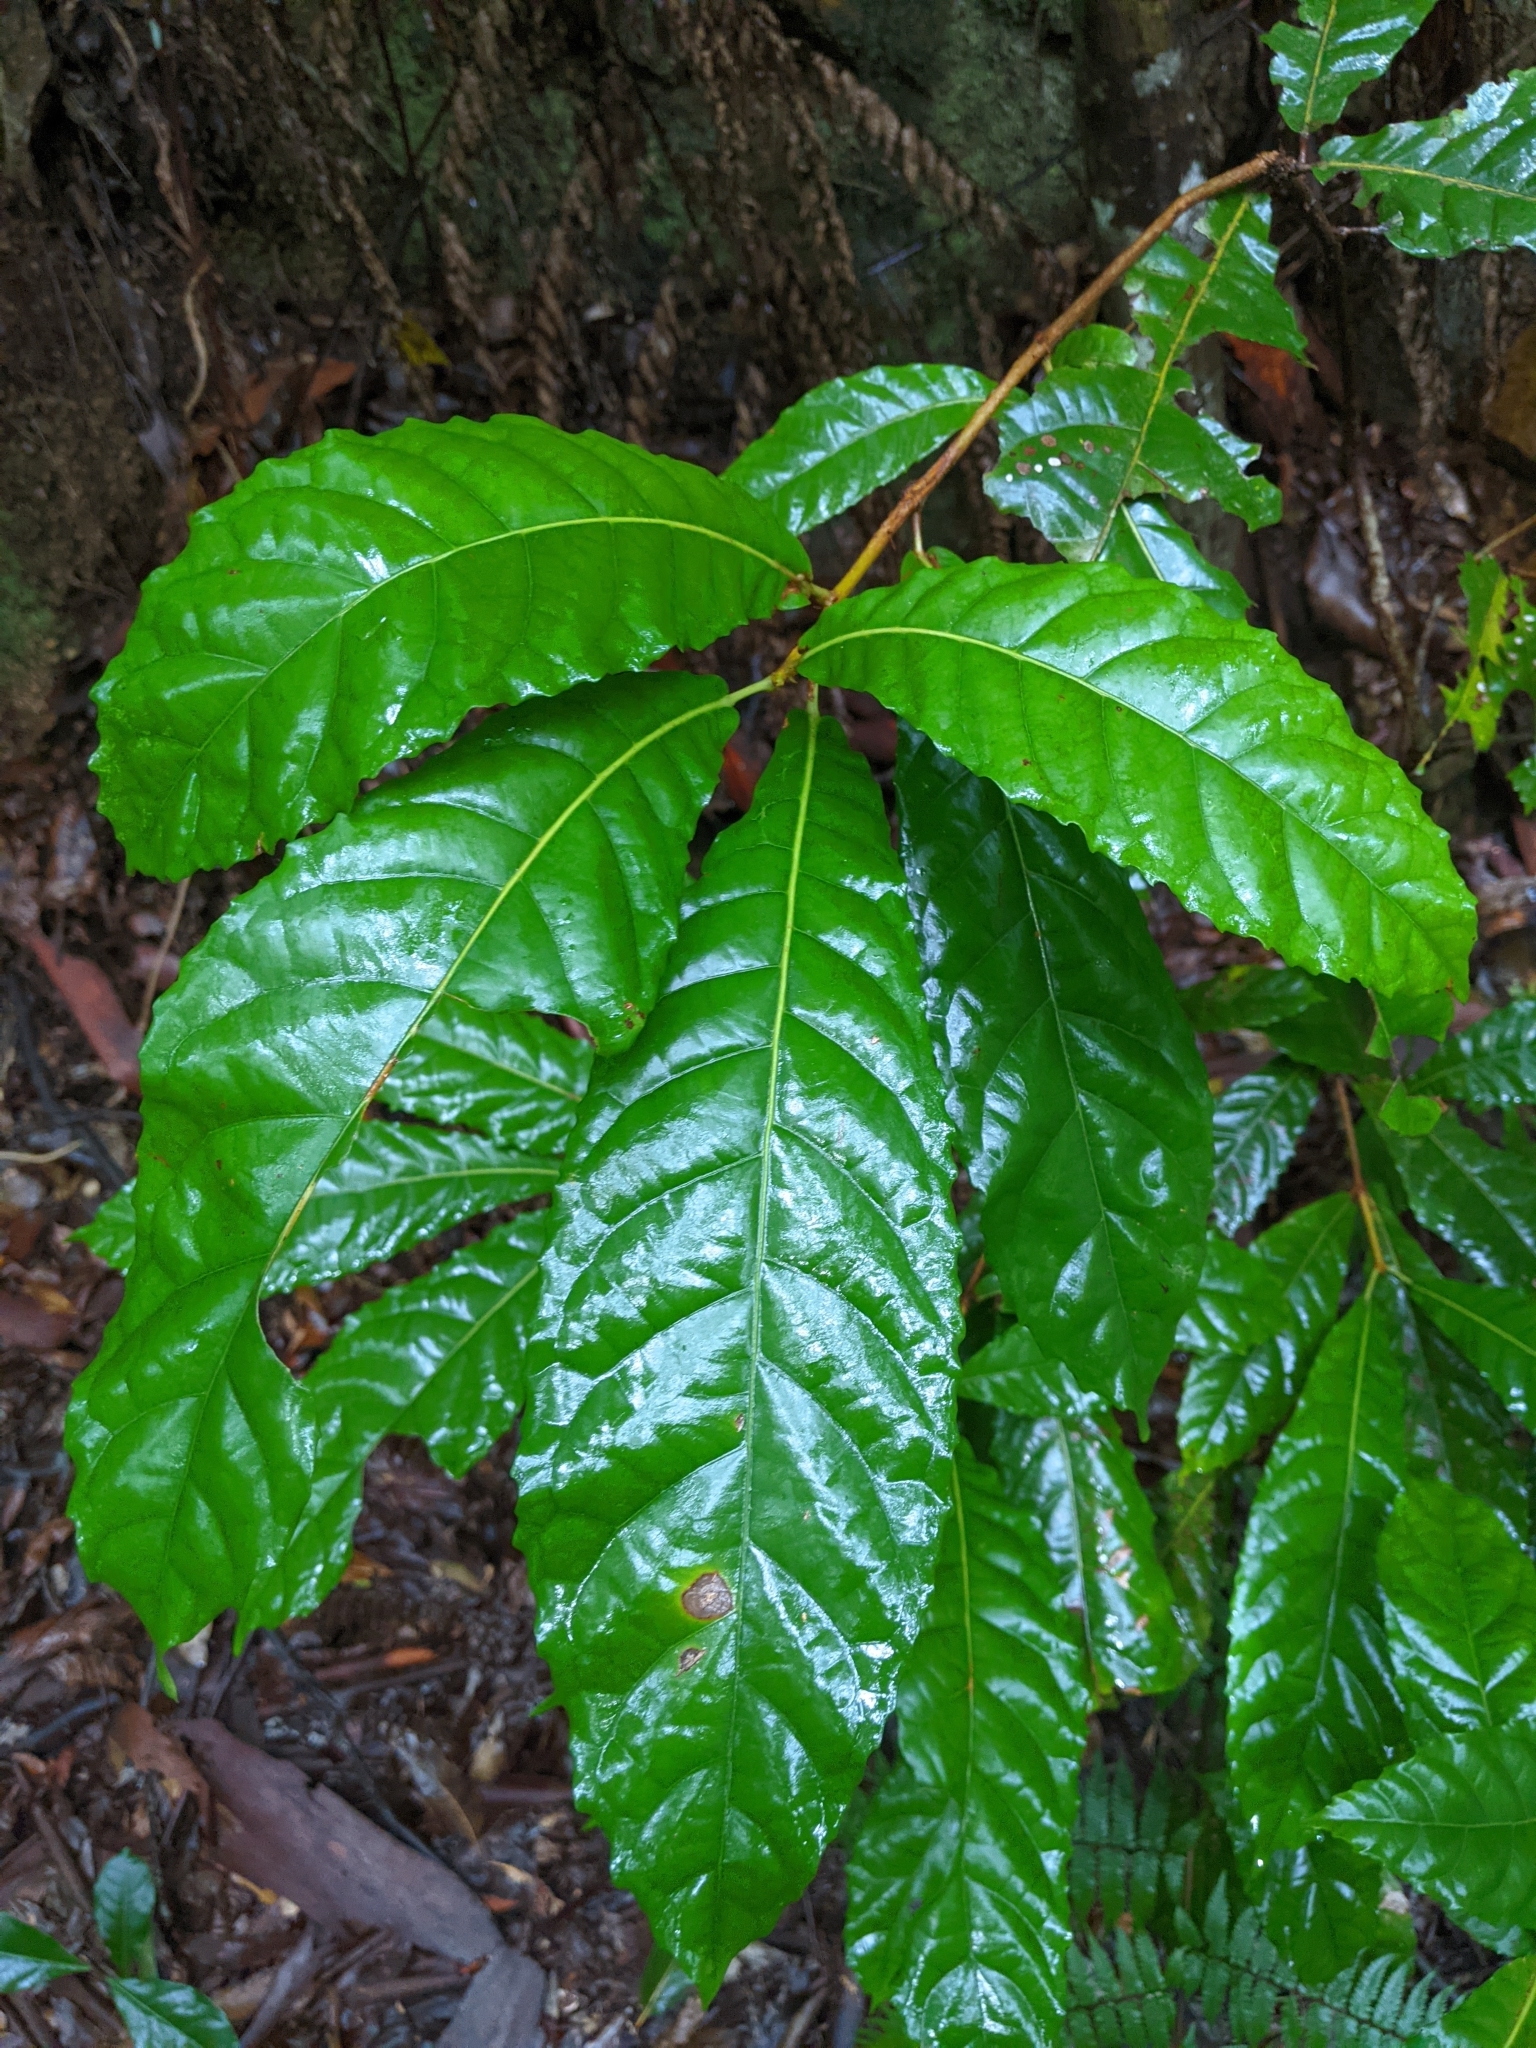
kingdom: Plantae
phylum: Tracheophyta
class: Magnoliopsida
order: Oxalidales
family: Elaeocarpaceae
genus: Sloanea
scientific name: Sloanea australis
